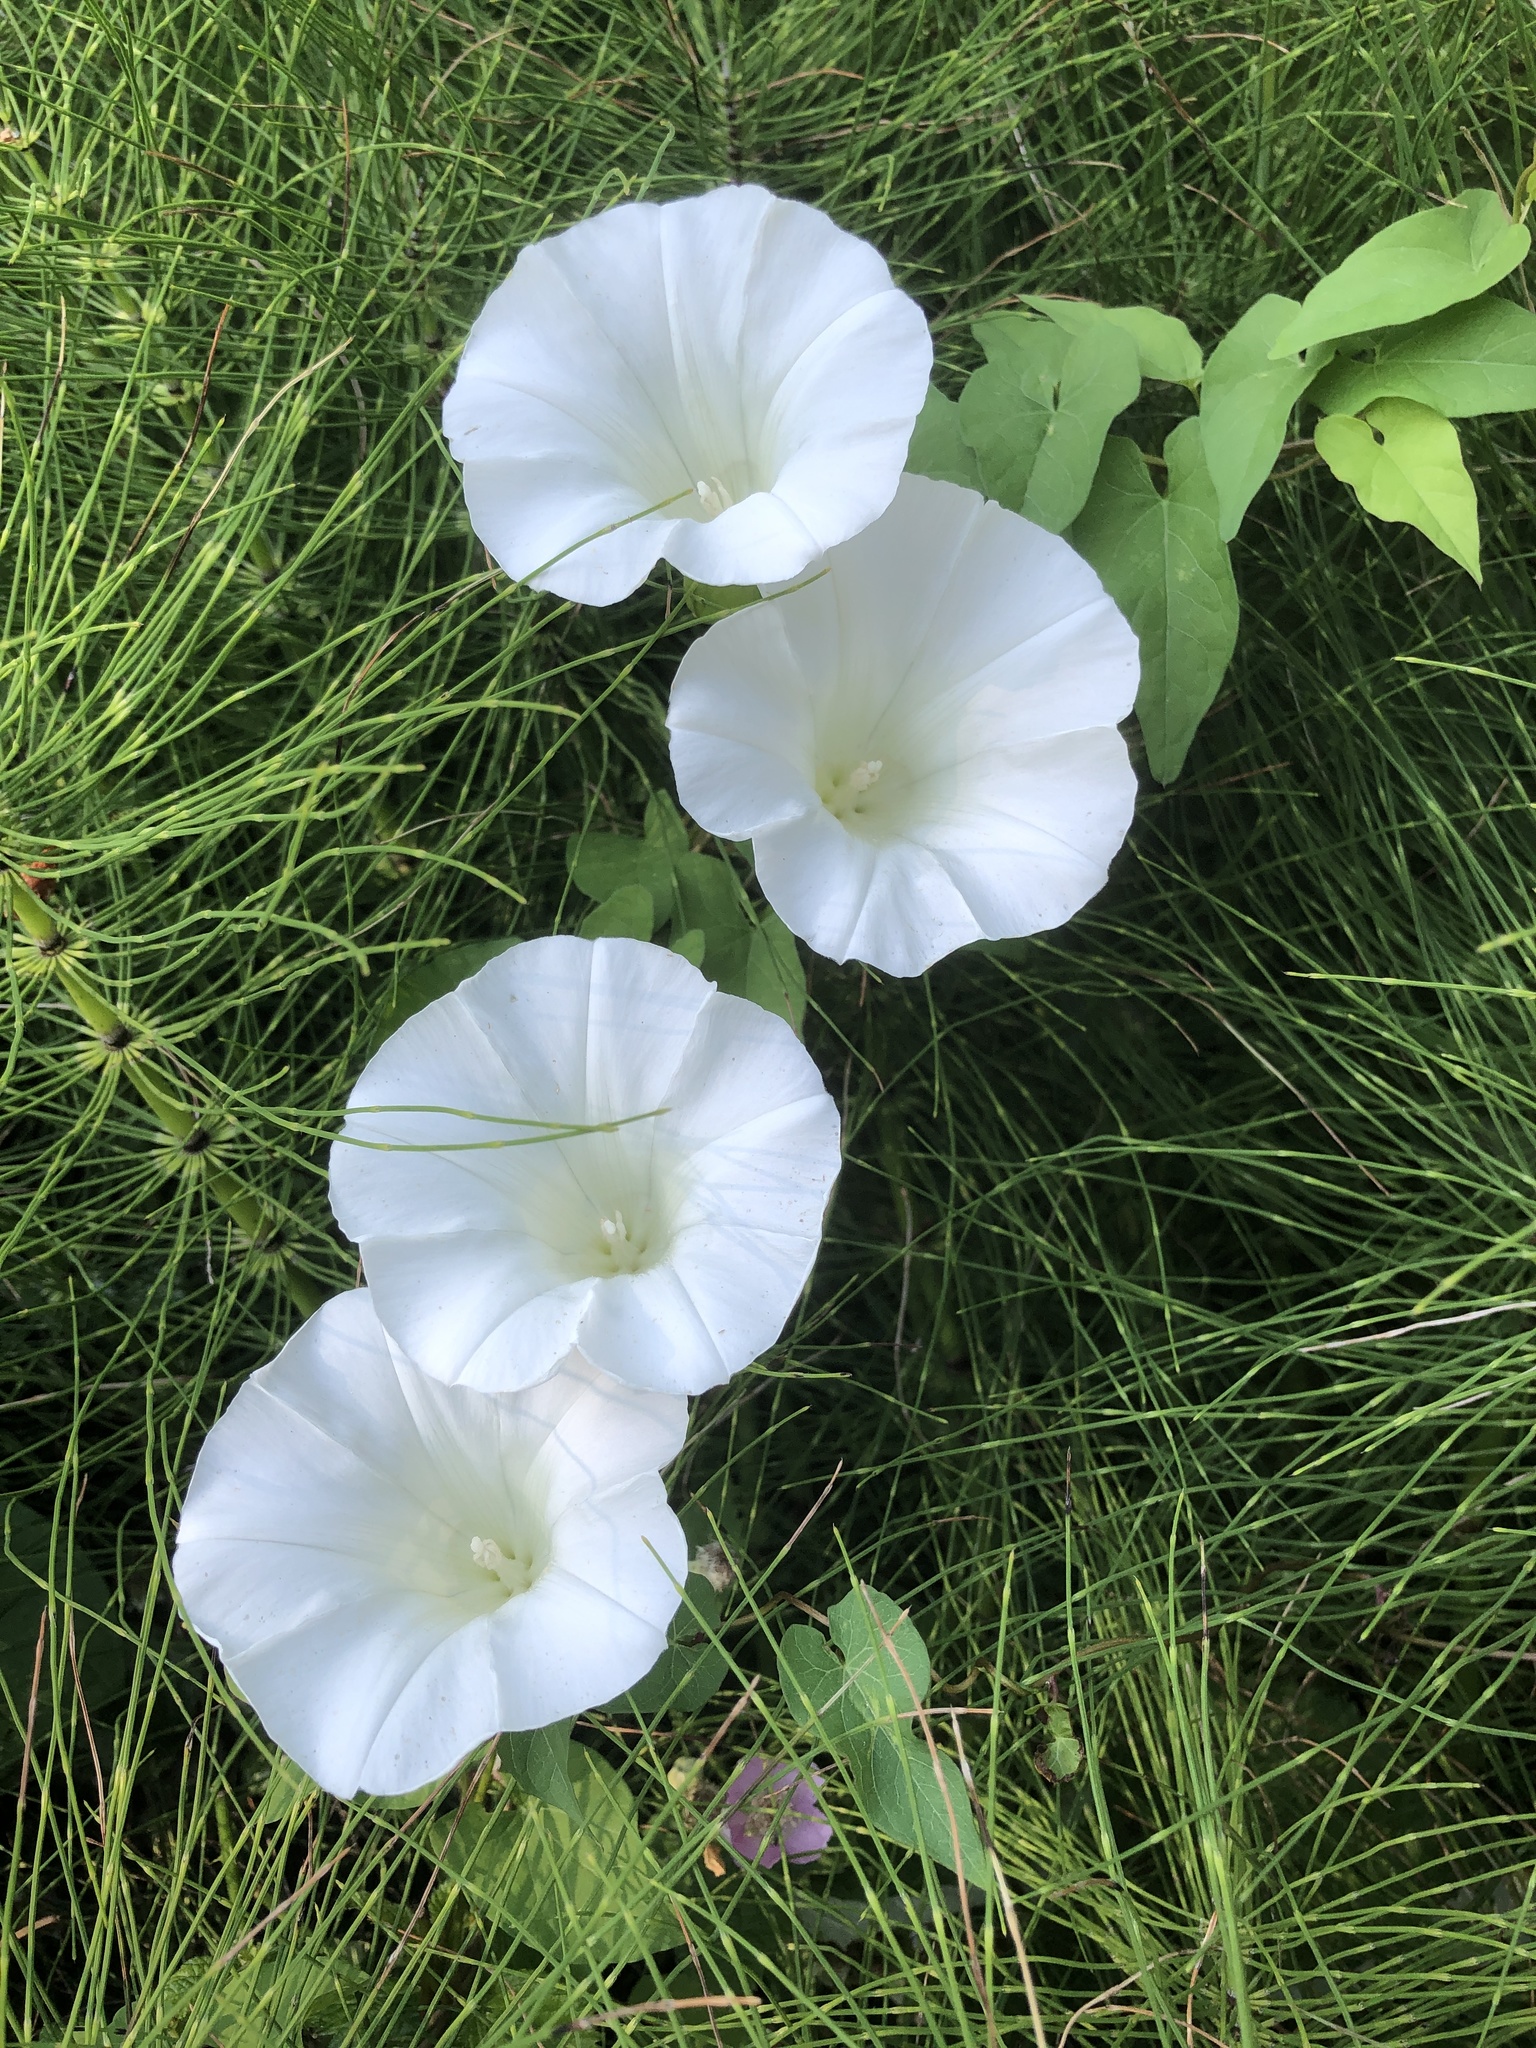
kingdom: Plantae
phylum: Tracheophyta
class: Magnoliopsida
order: Solanales
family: Convolvulaceae
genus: Calystegia
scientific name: Calystegia silvatica
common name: Large bindweed
